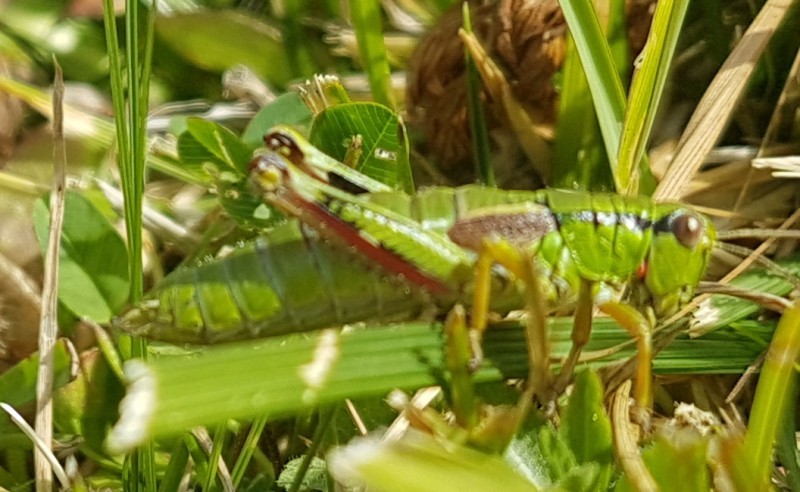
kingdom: Animalia
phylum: Arthropoda
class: Insecta
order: Orthoptera
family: Acrididae
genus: Miramella
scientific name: Miramella alpina
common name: Green mountain grasshopper
